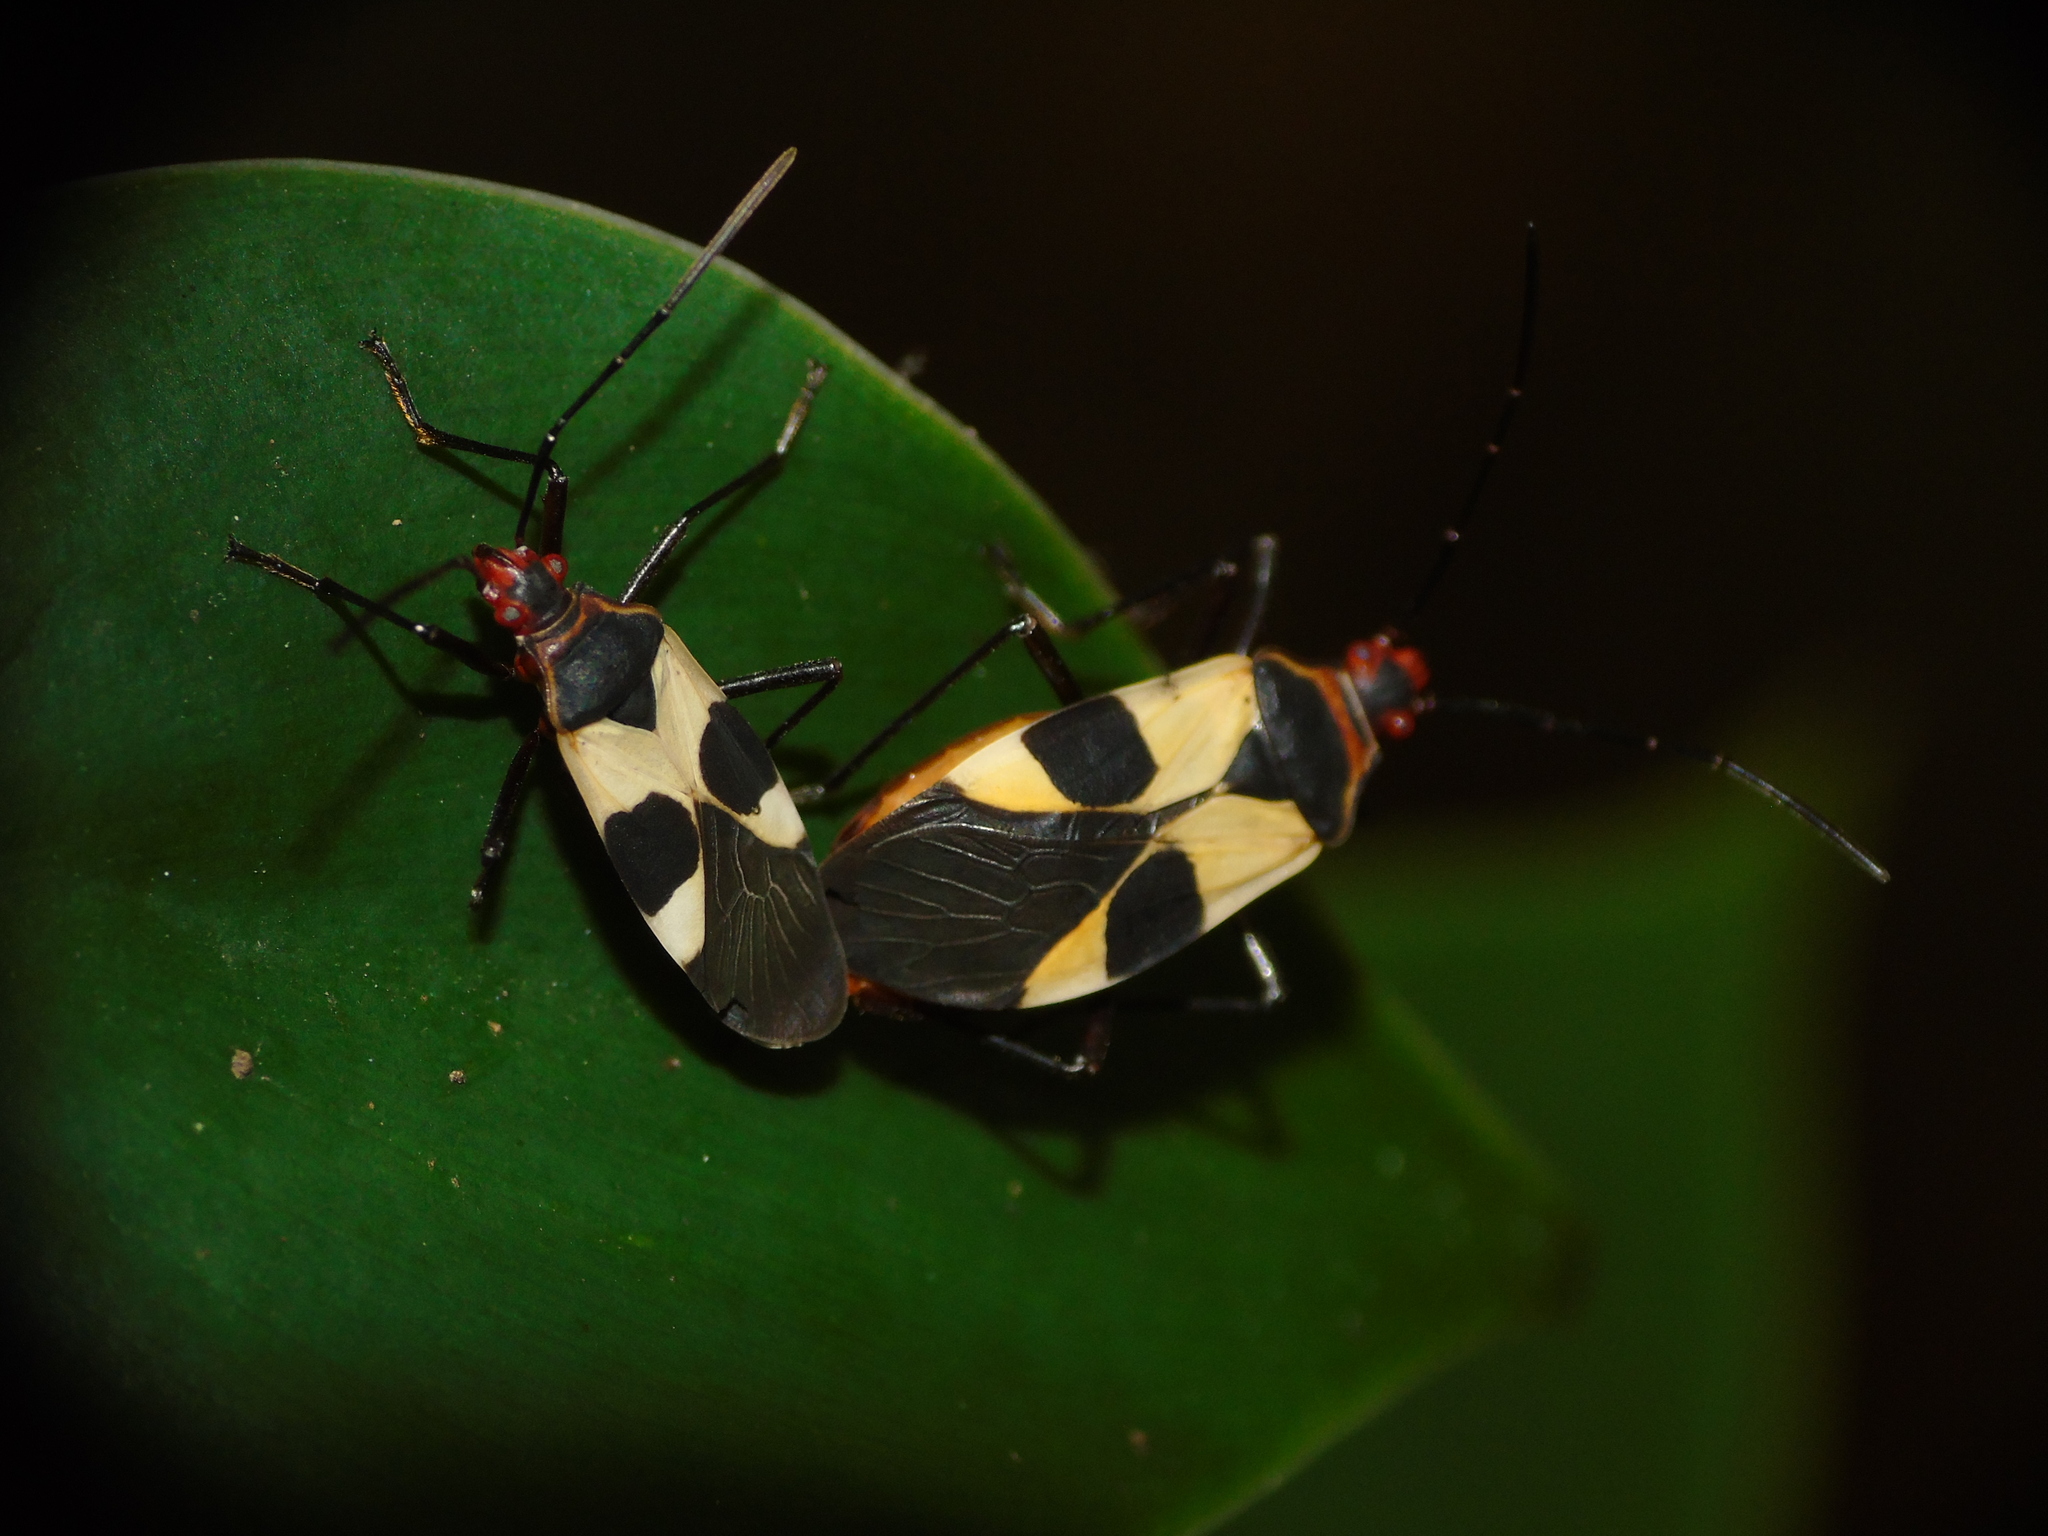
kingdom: Animalia
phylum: Arthropoda
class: Insecta
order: Hemiptera
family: Lygaeidae
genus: Oncopeltus
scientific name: Oncopeltus sandarachatus
